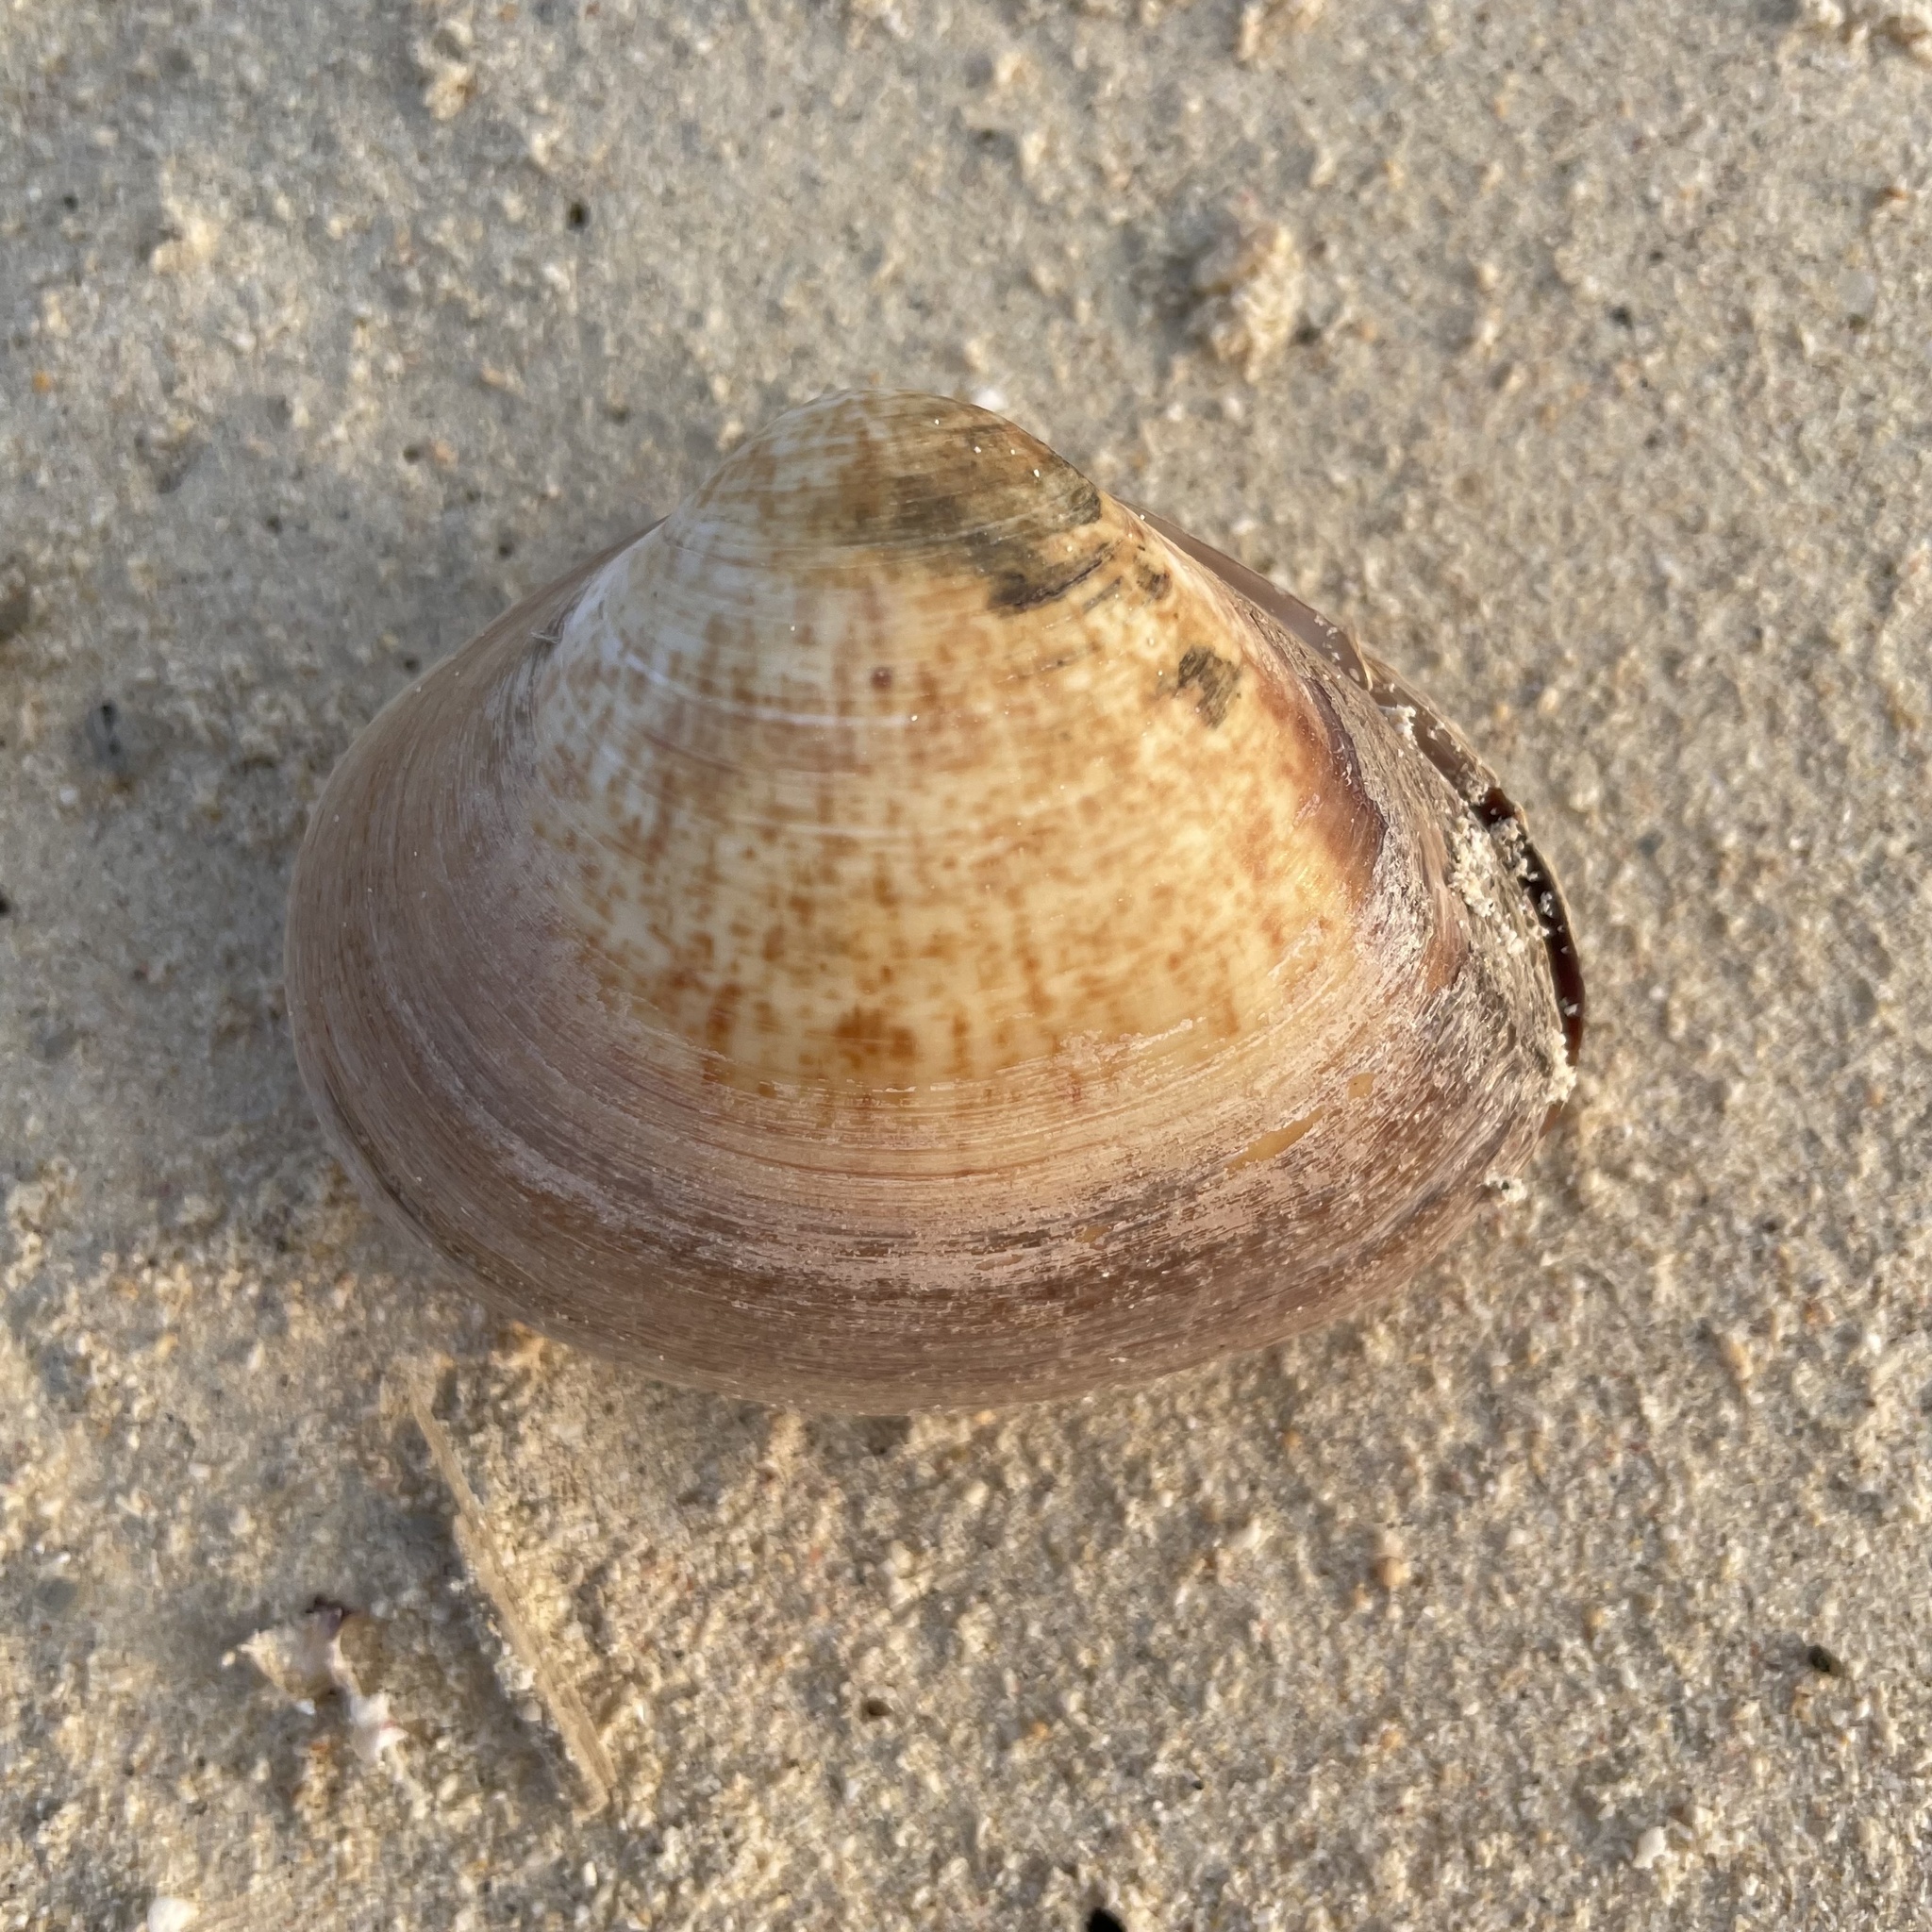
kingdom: Animalia
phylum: Mollusca
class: Bivalvia
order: Venerida
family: Mactridae
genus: Mactra
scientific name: Mactra maculata
